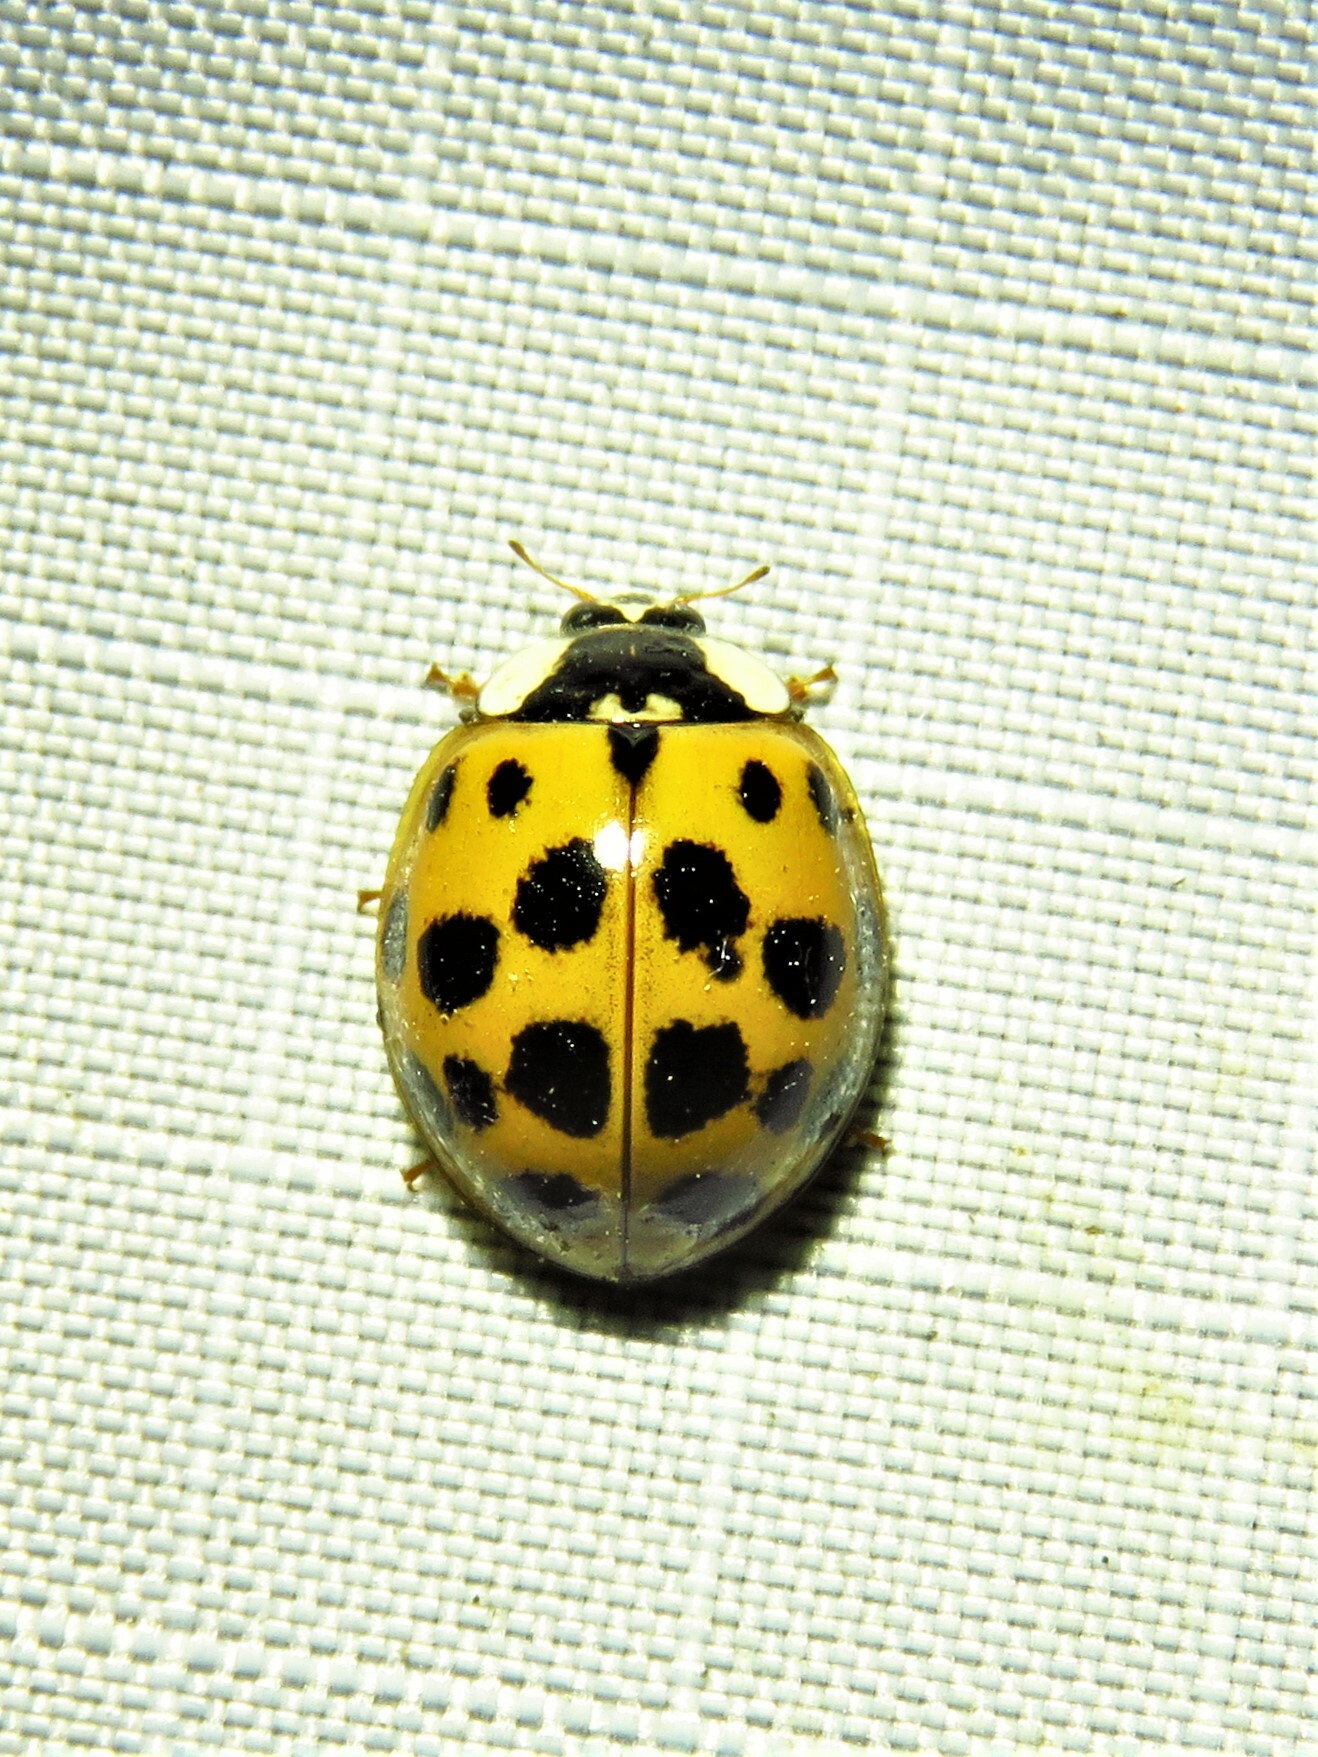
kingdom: Animalia
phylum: Arthropoda
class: Insecta
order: Coleoptera
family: Coccinellidae
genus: Harmonia
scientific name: Harmonia axyridis
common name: Harlequin ladybird
